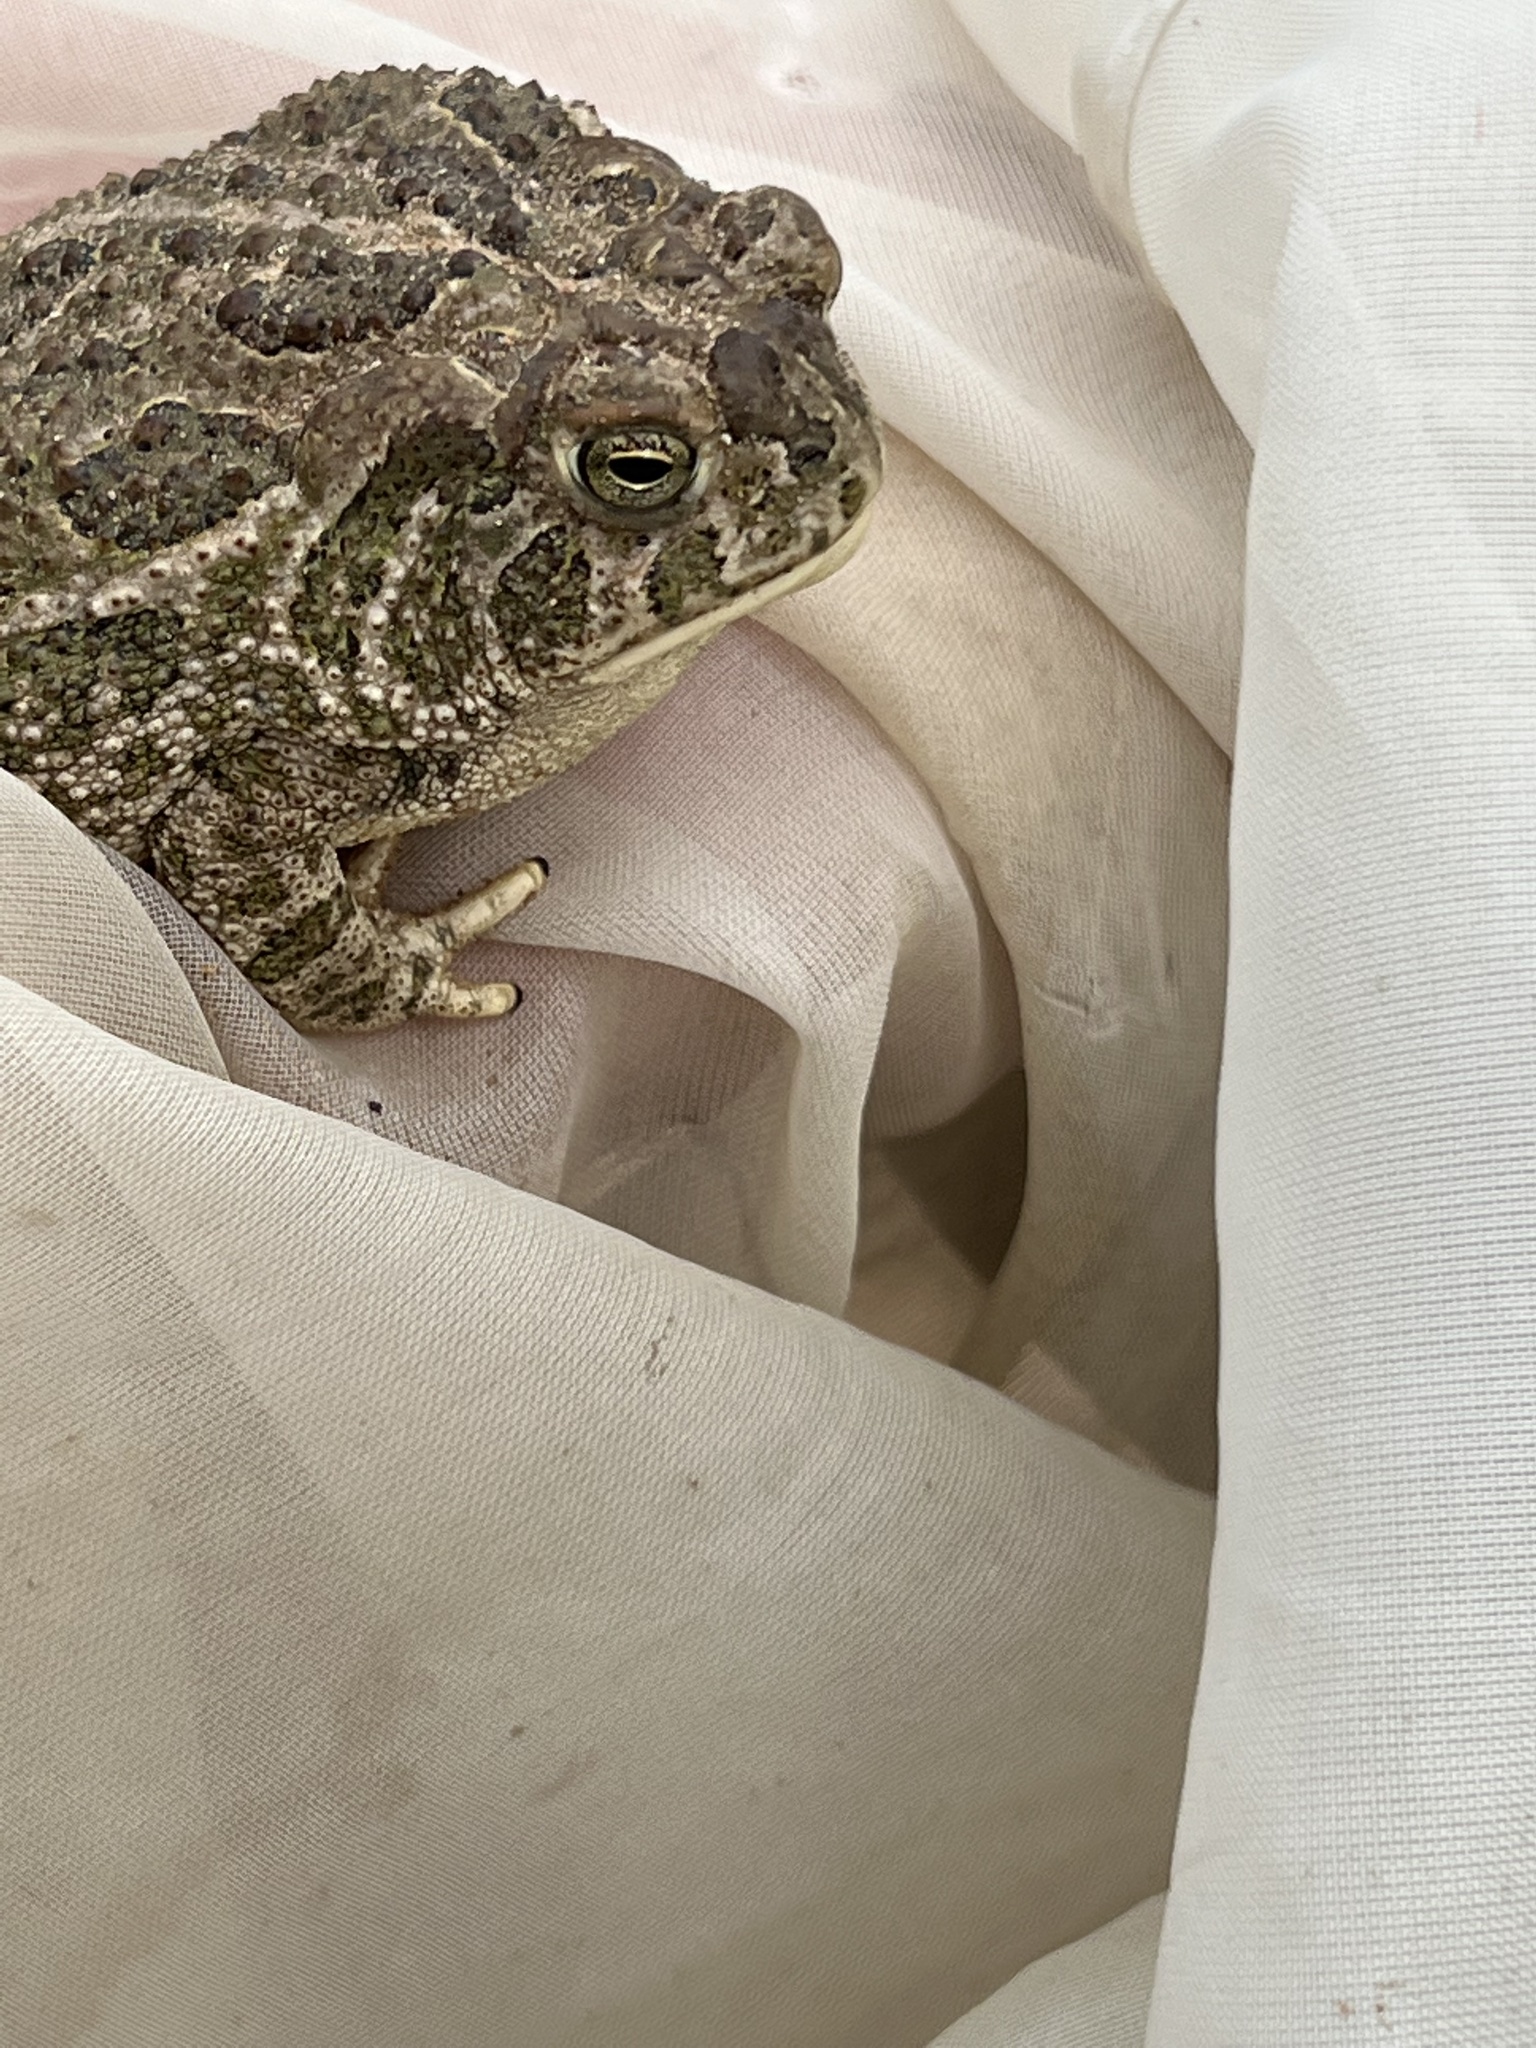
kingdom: Animalia
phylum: Chordata
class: Amphibia
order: Anura
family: Bufonidae
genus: Anaxyrus
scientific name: Anaxyrus cognatus
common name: Great plains toad
